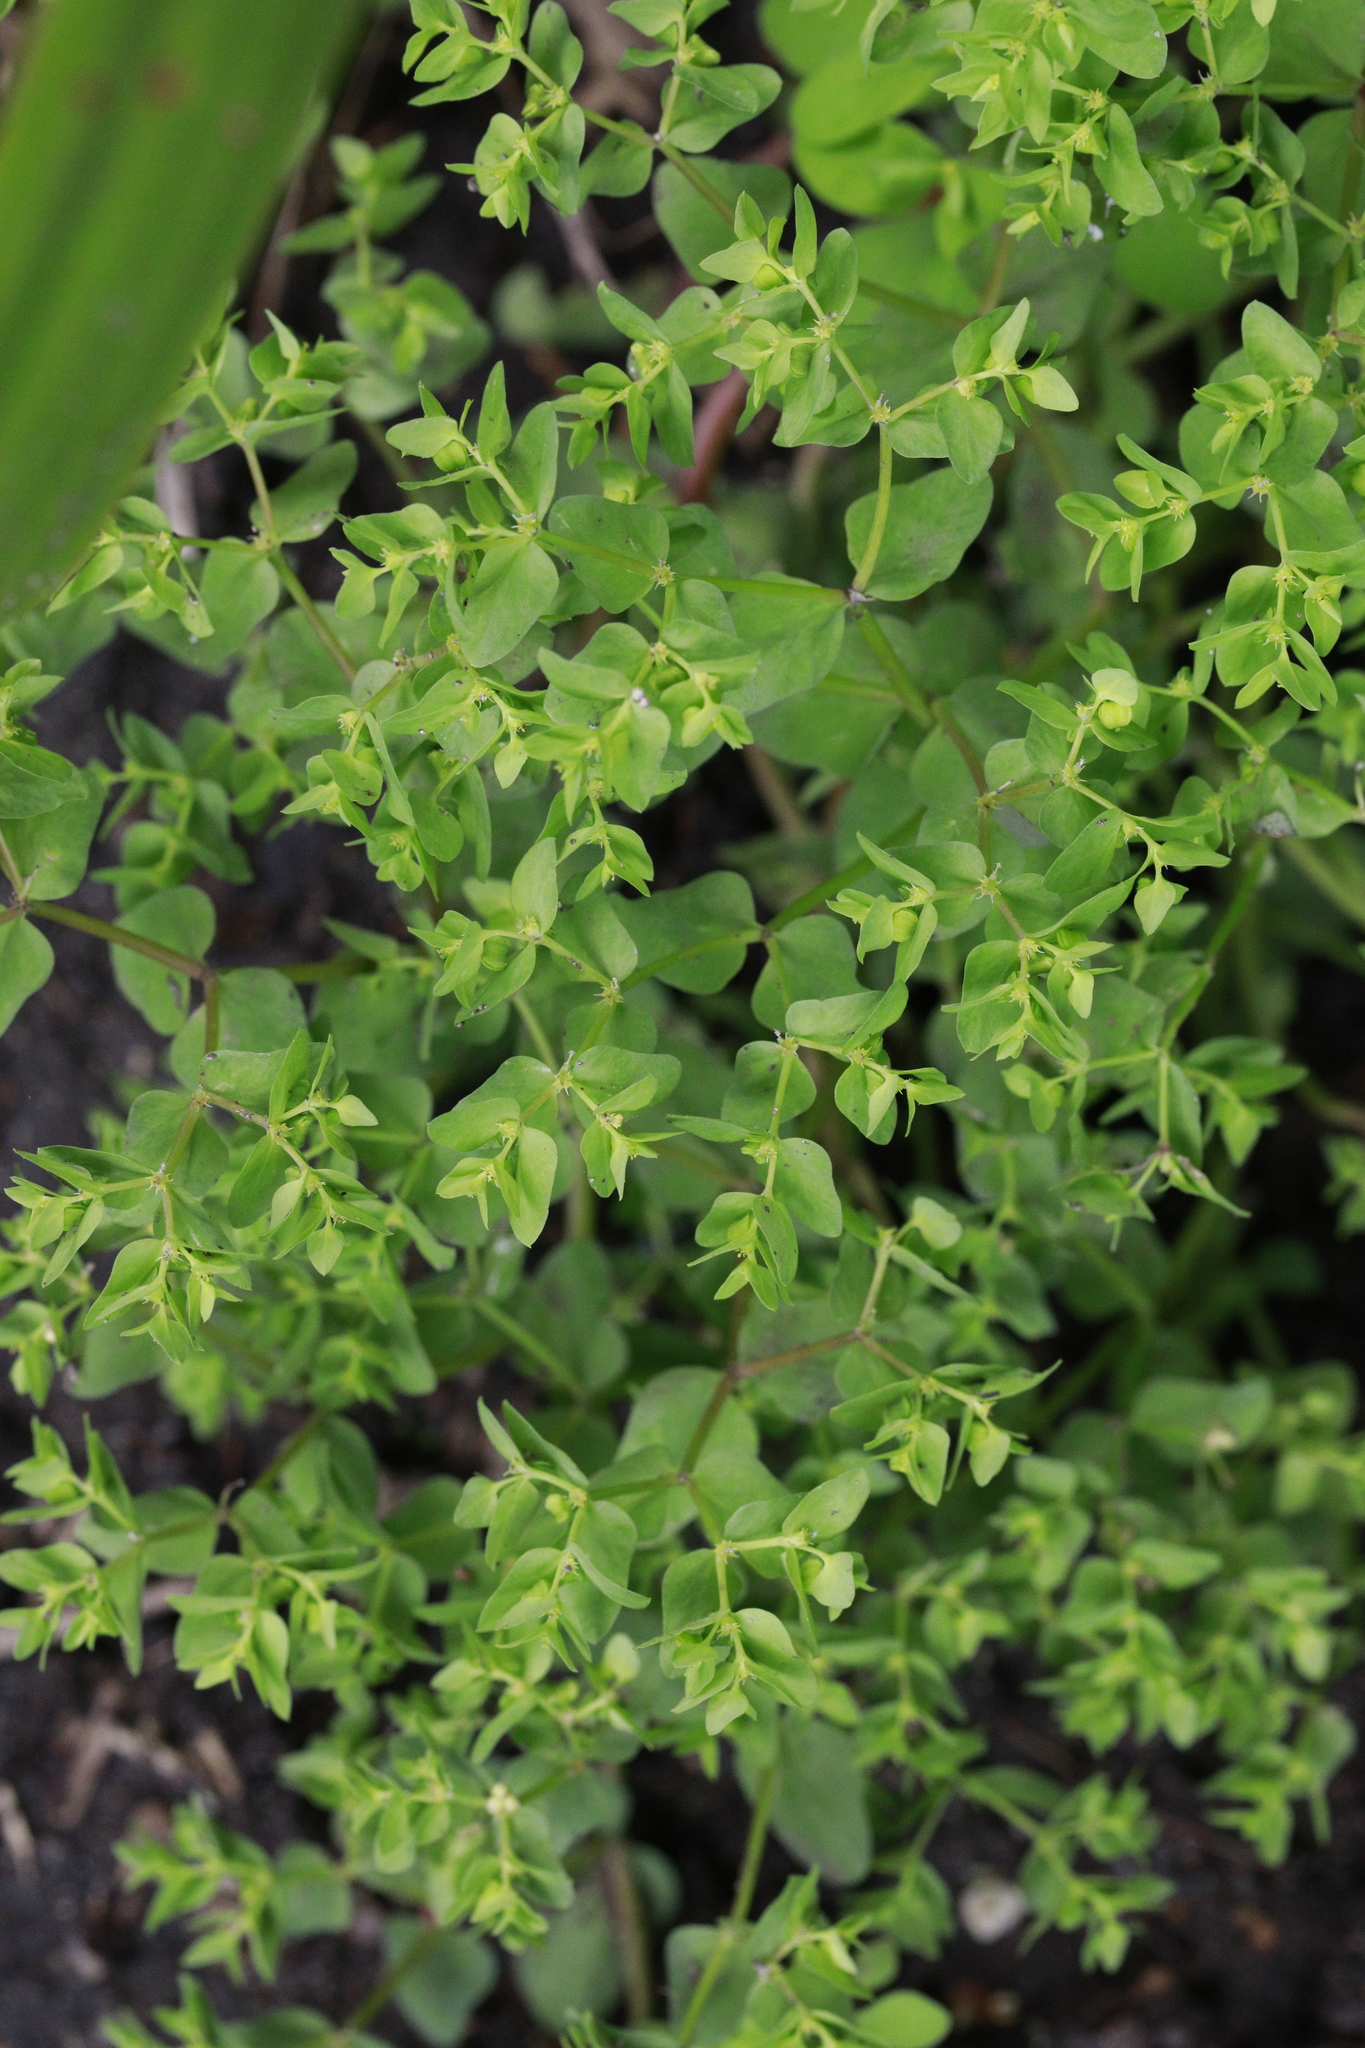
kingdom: Plantae
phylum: Tracheophyta
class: Magnoliopsida
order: Malpighiales
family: Euphorbiaceae
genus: Euphorbia
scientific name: Euphorbia peplus
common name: Petty spurge
